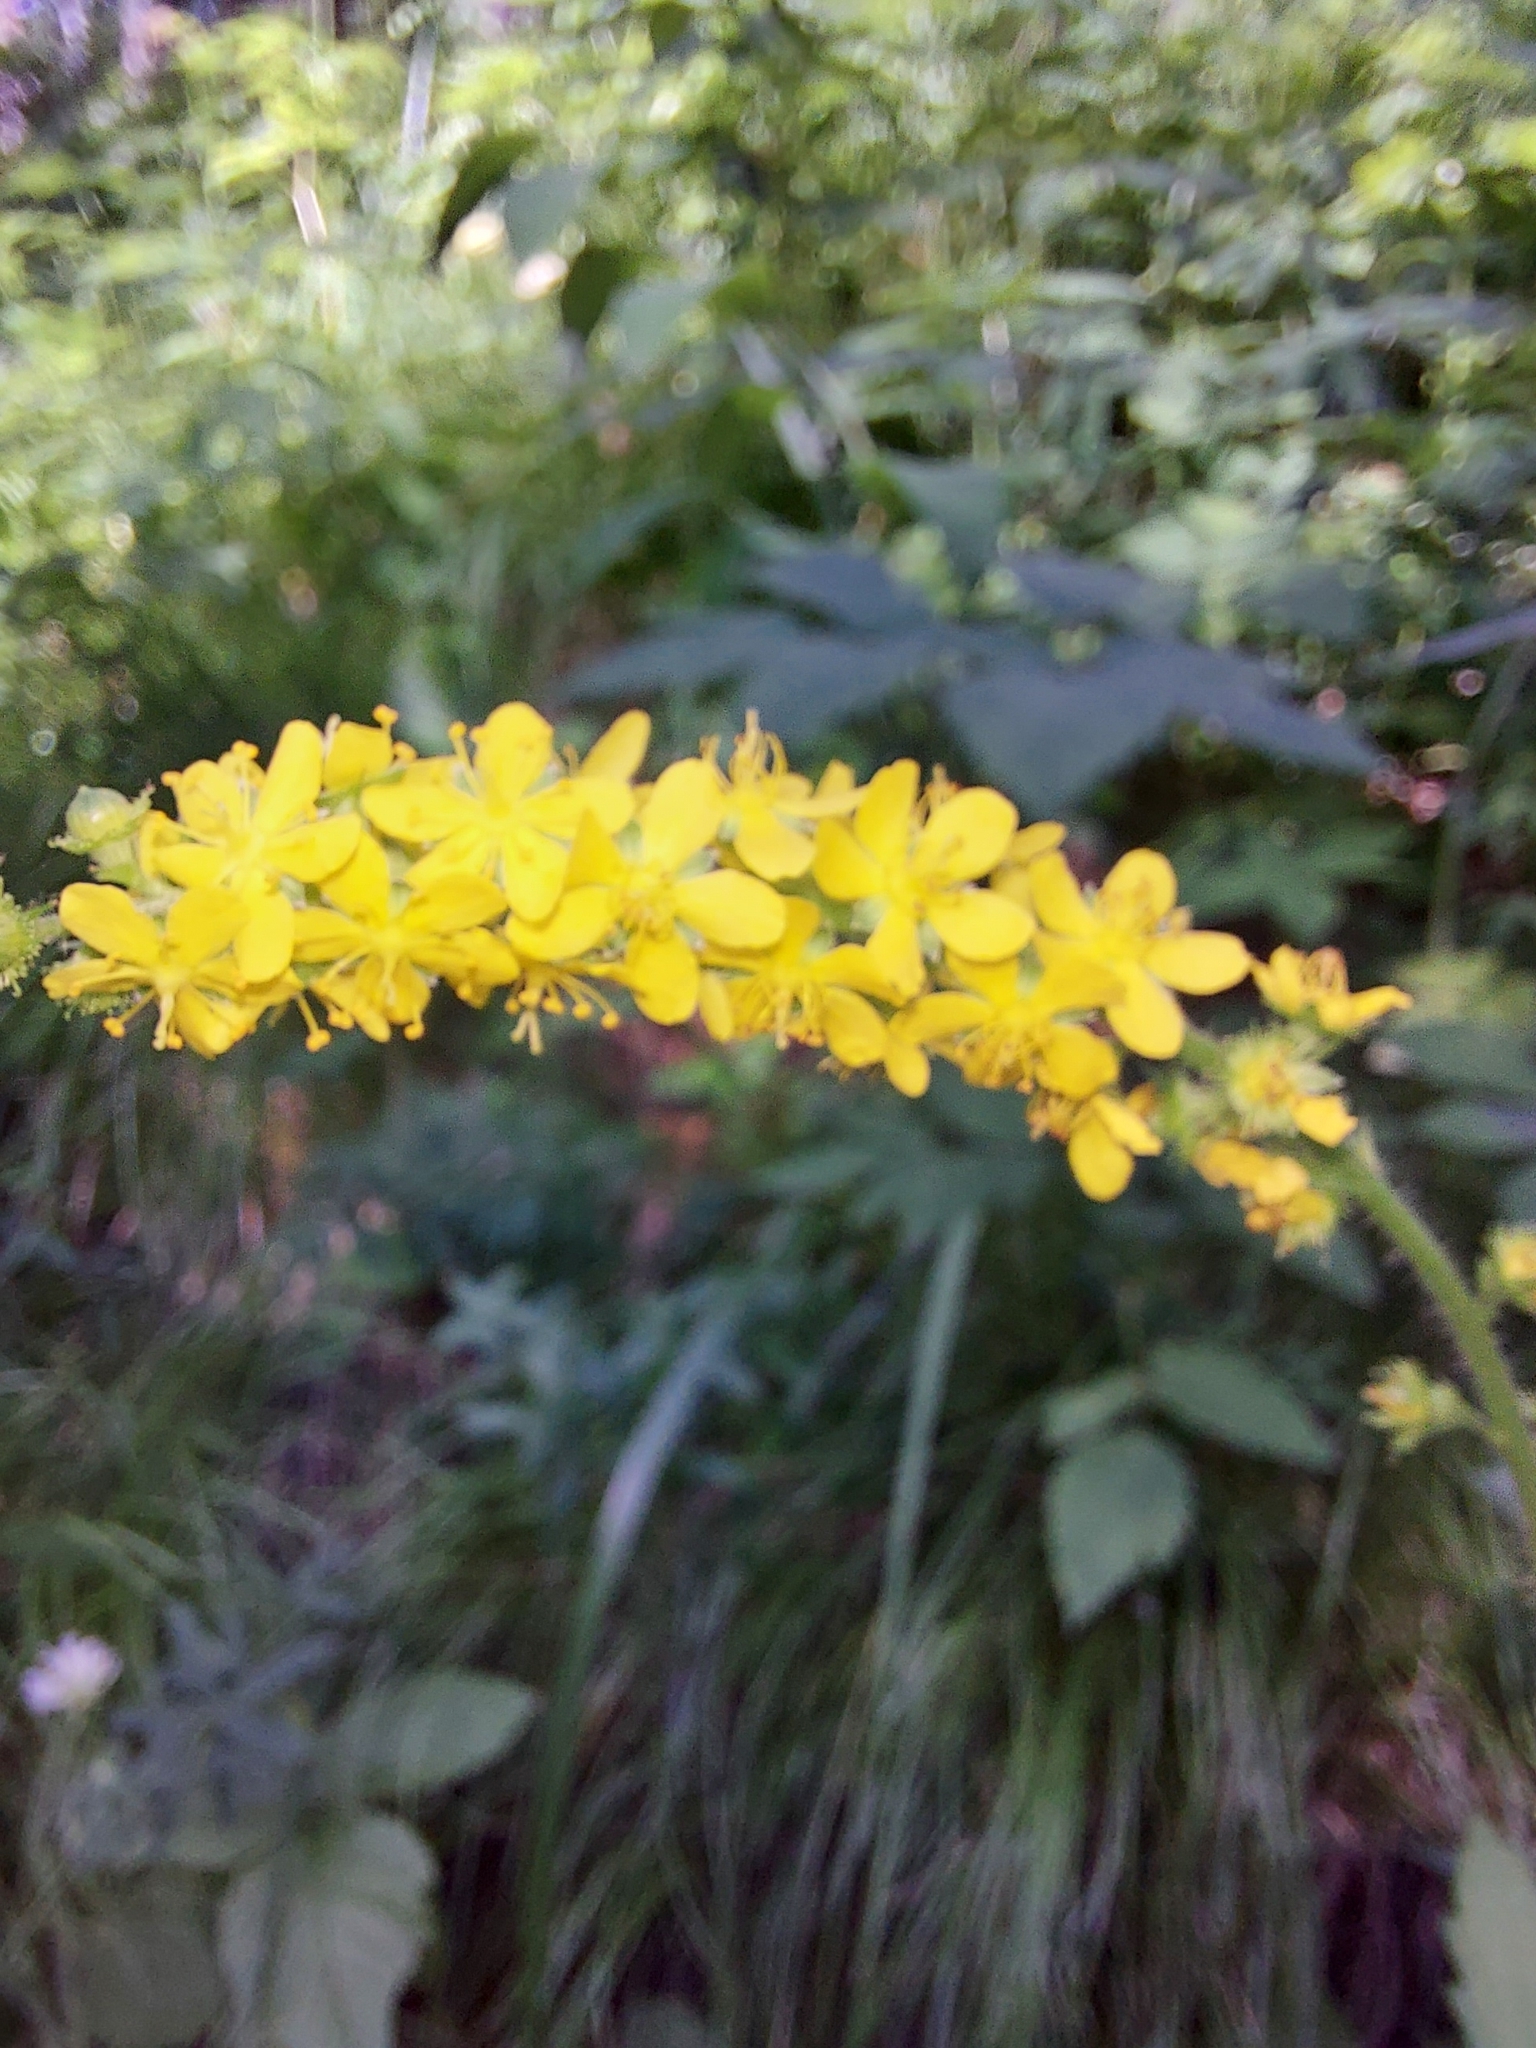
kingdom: Plantae
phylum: Tracheophyta
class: Magnoliopsida
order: Rosales
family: Rosaceae
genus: Agrimonia
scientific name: Agrimonia pilosa
